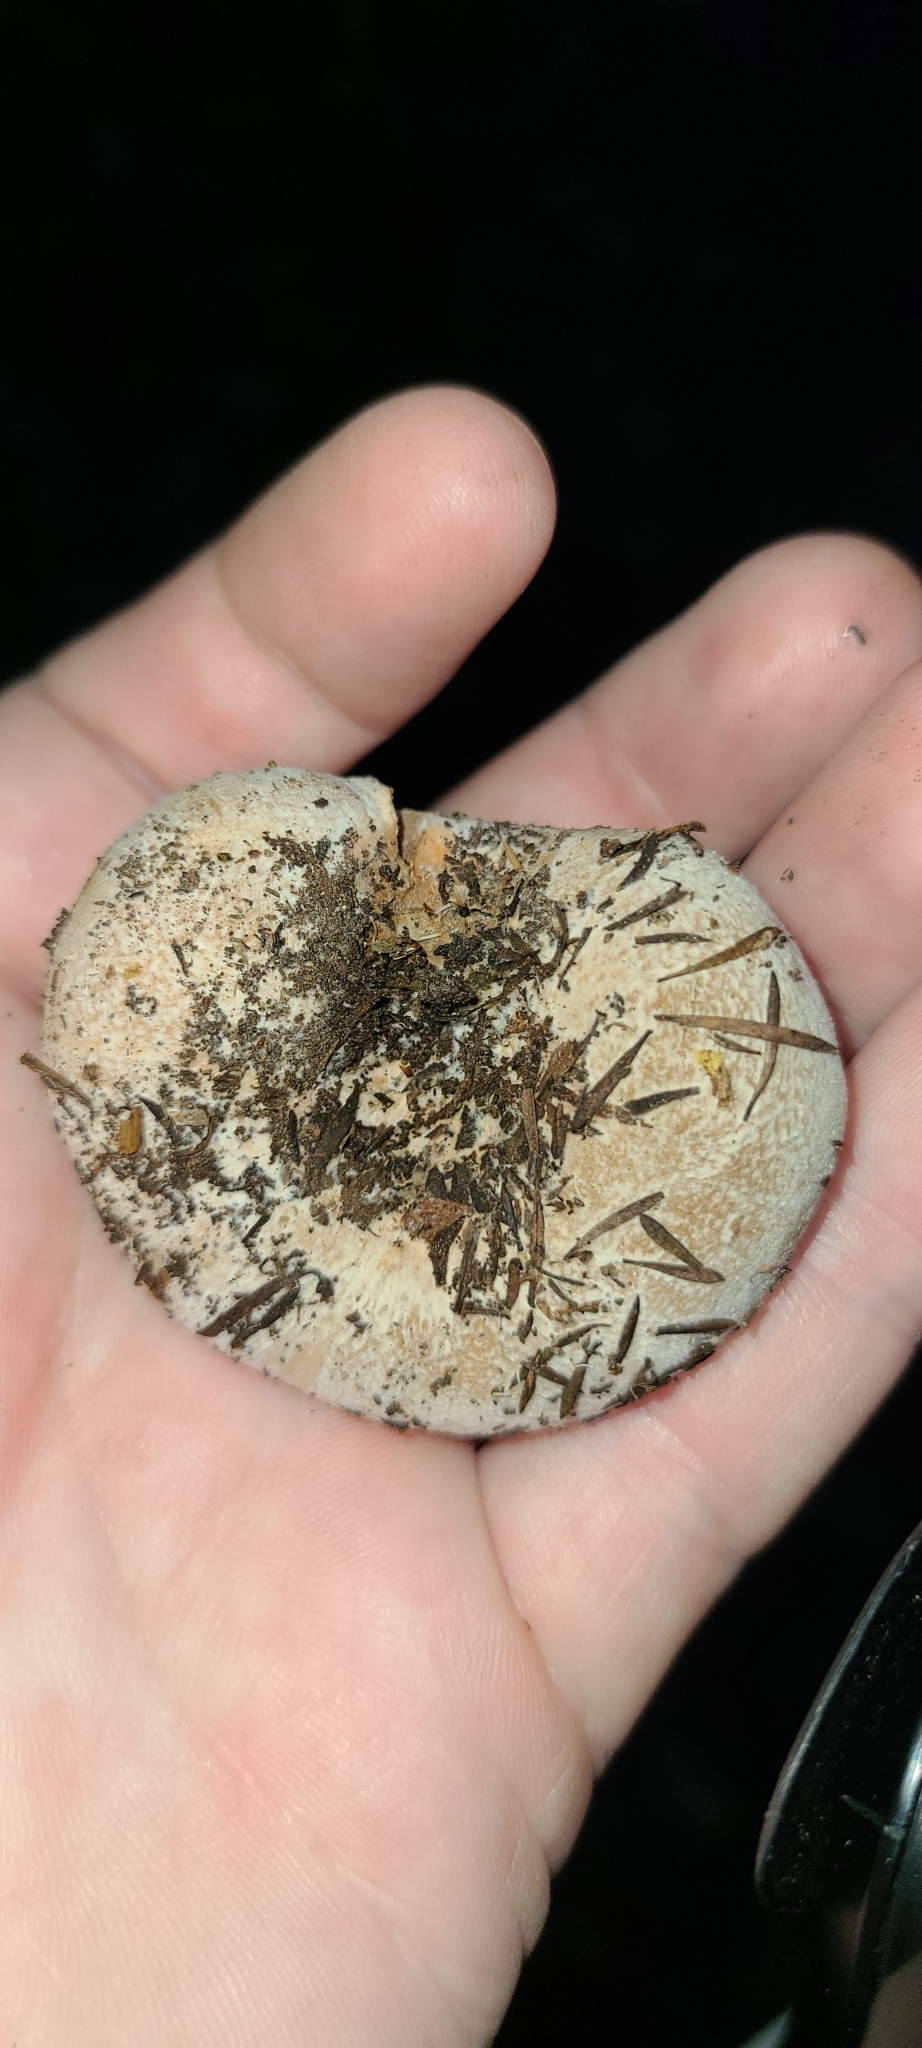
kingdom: Fungi
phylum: Basidiomycota
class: Agaricomycetes
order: Russulales
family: Russulaceae
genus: Lactifluus
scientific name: Lactifluus clarkeae
